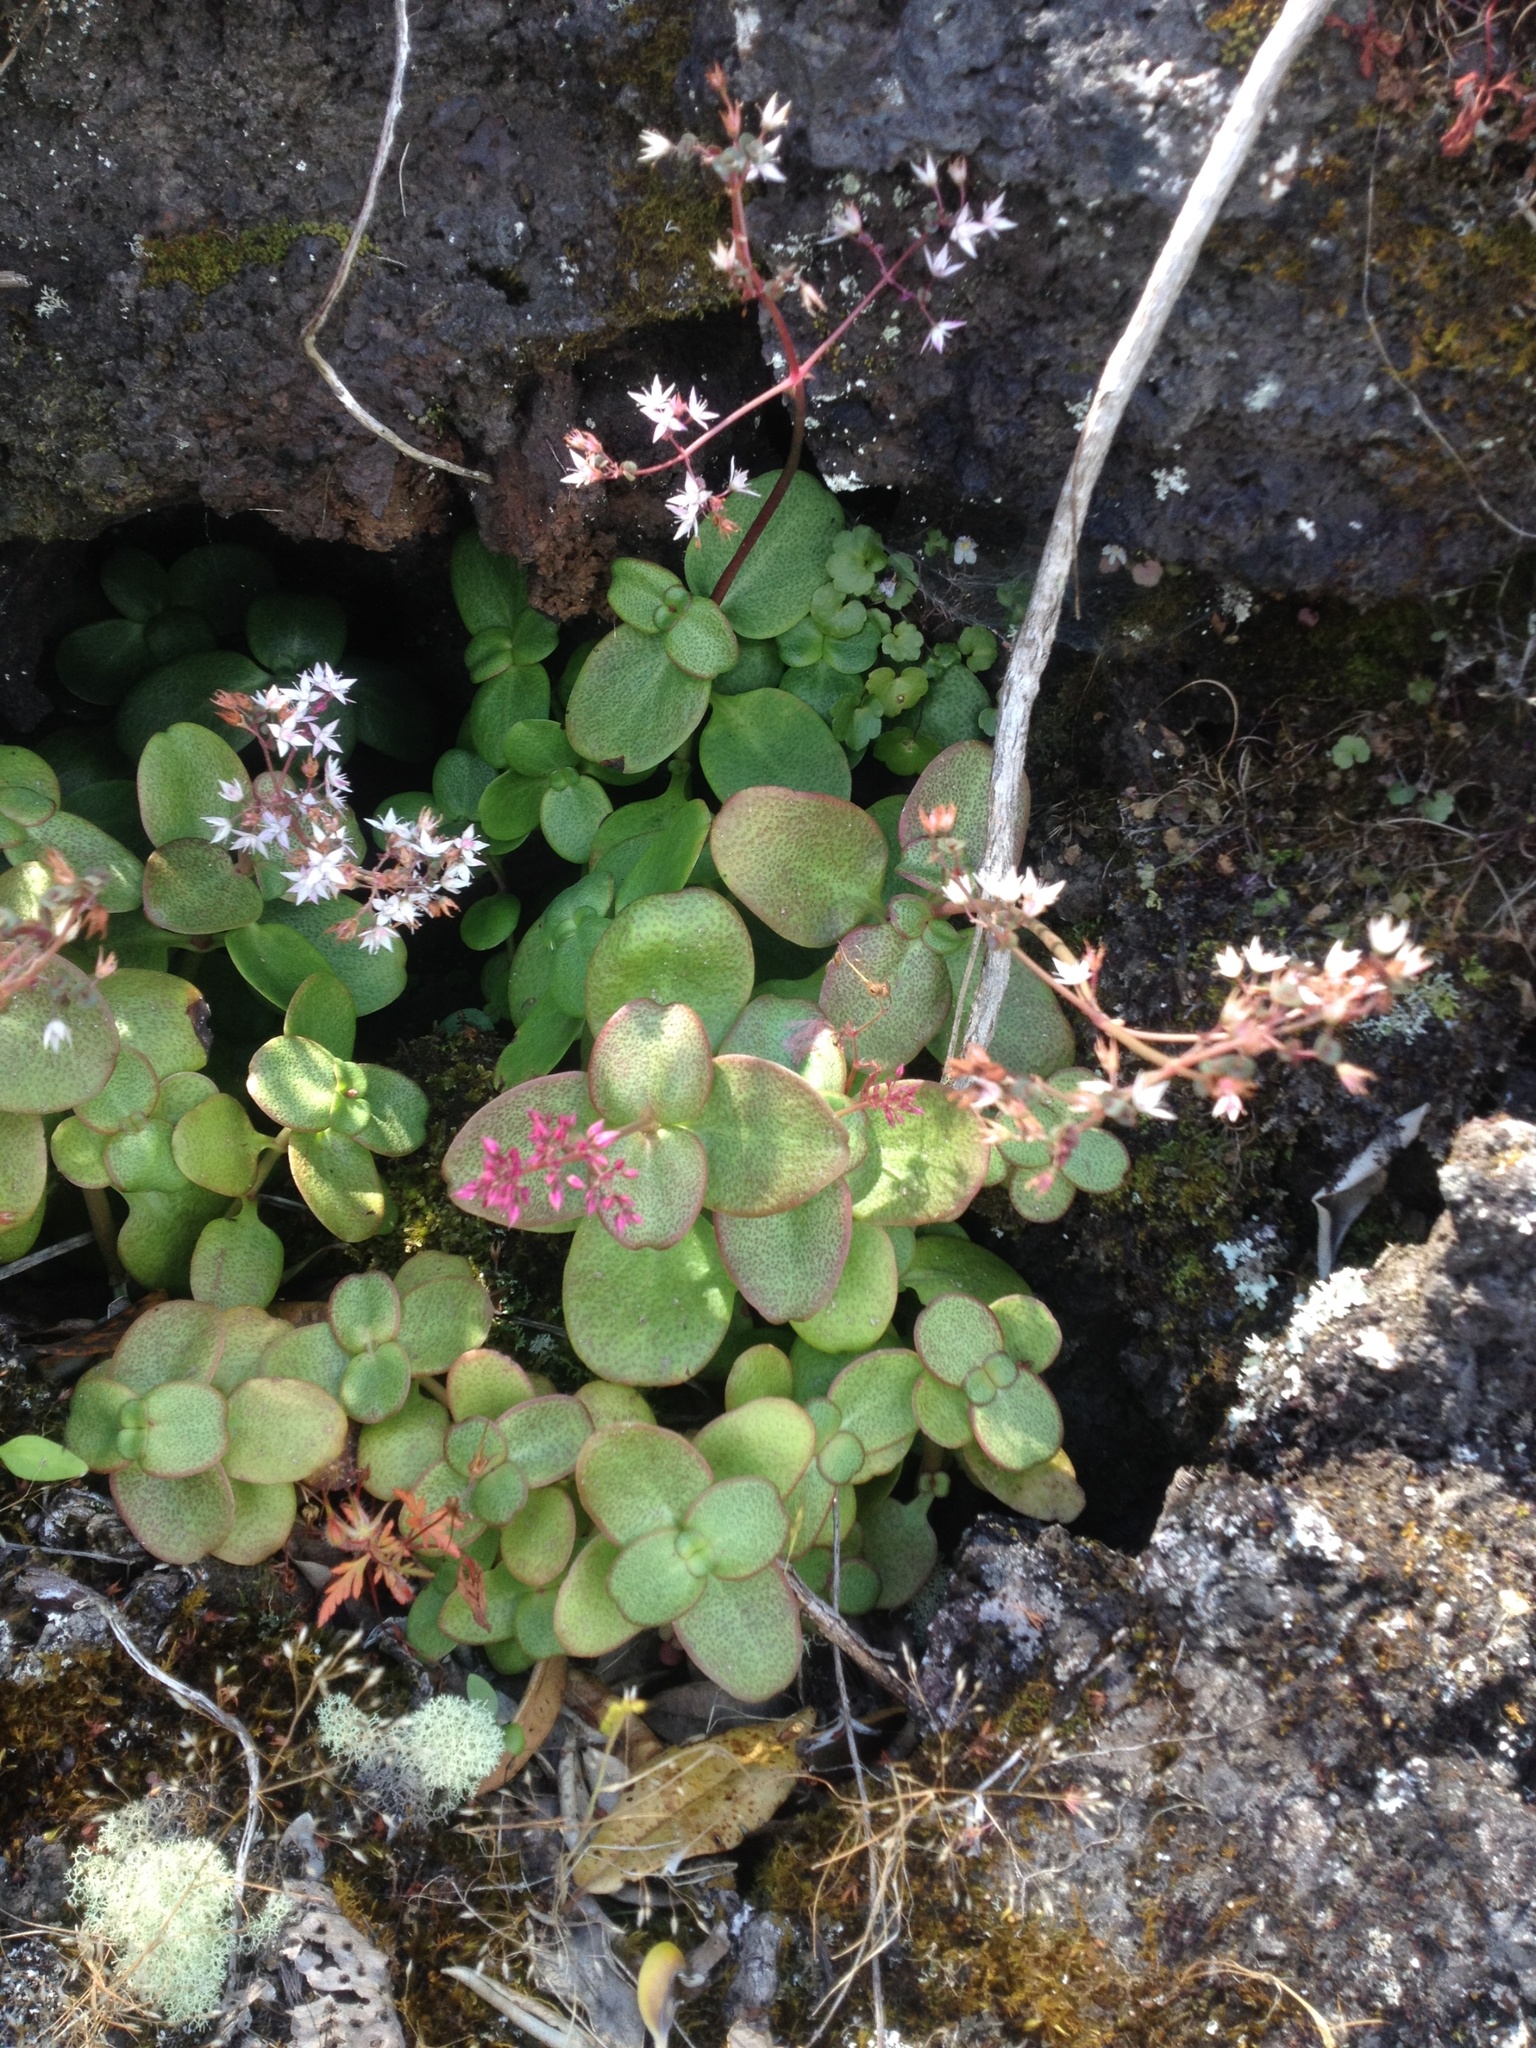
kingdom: Plantae
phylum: Tracheophyta
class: Magnoliopsida
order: Saxifragales
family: Crassulaceae
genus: Crassula
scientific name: Crassula multicava
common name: Cape province pygmyweed
